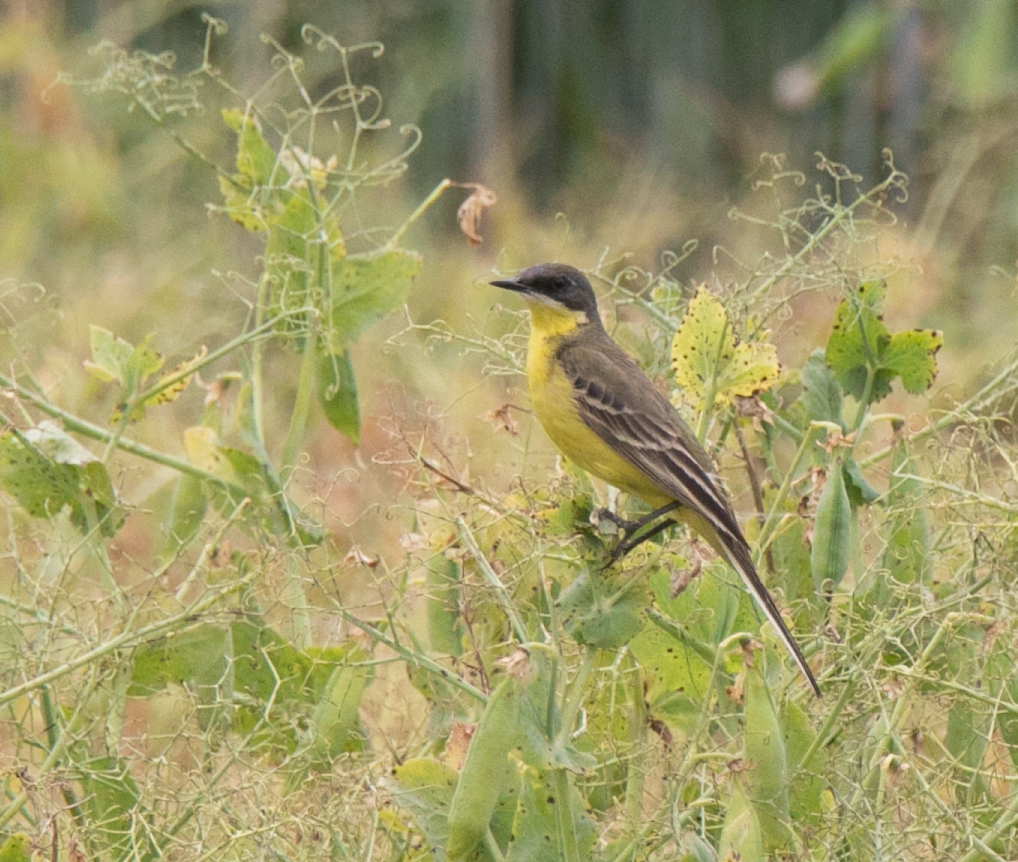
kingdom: Animalia
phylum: Chordata
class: Aves
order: Passeriformes
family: Motacillidae
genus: Motacilla
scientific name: Motacilla flava
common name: Western yellow wagtail
